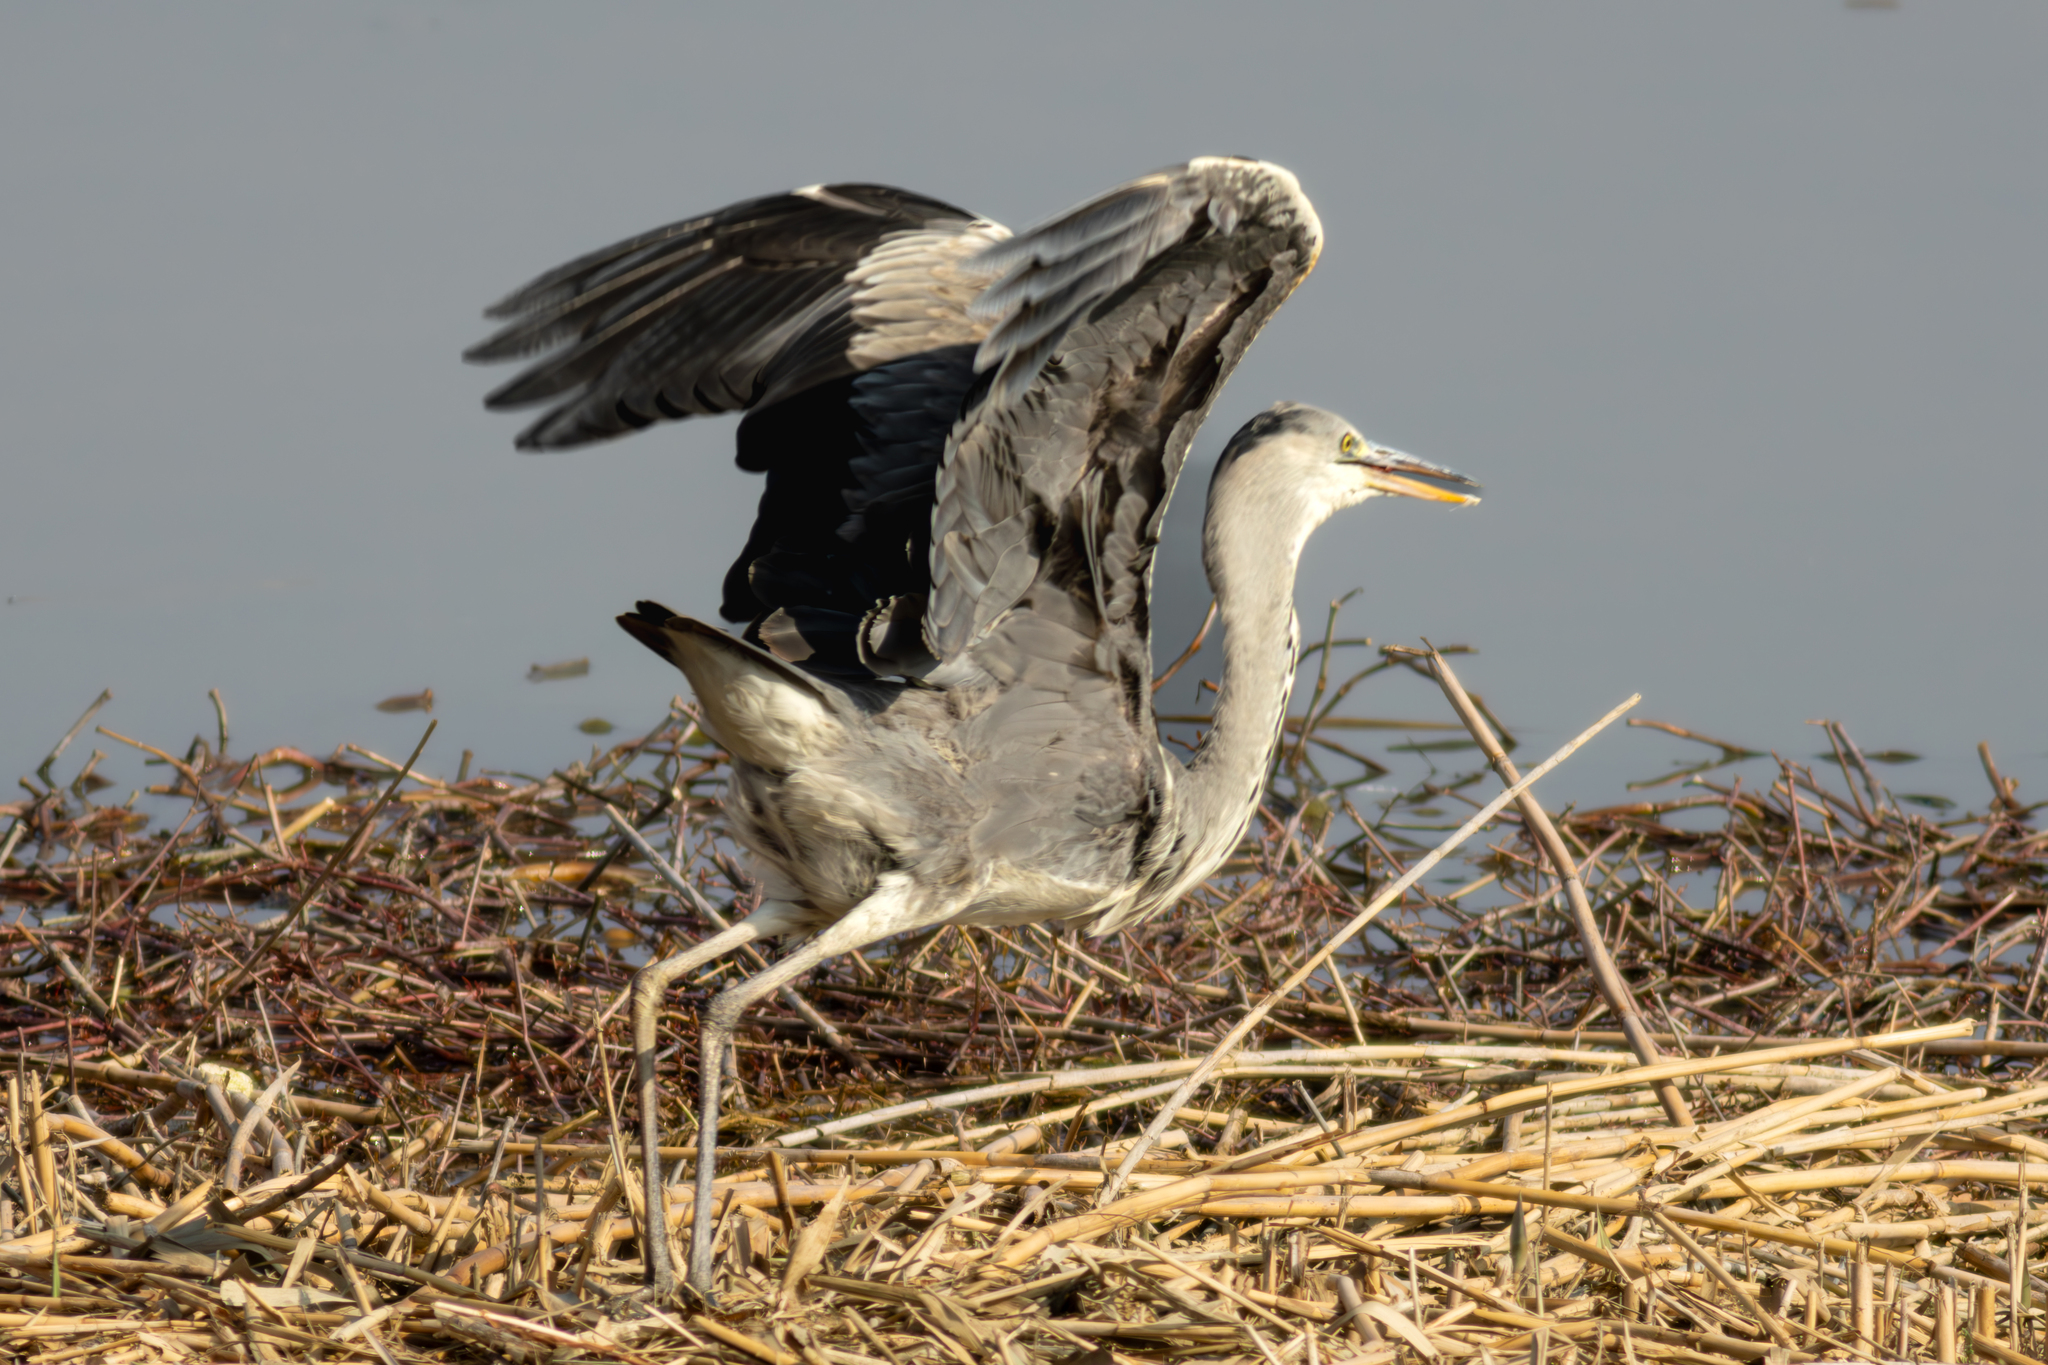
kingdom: Animalia
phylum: Chordata
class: Aves
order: Pelecaniformes
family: Ardeidae
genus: Ardea
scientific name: Ardea cinerea
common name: Grey heron
